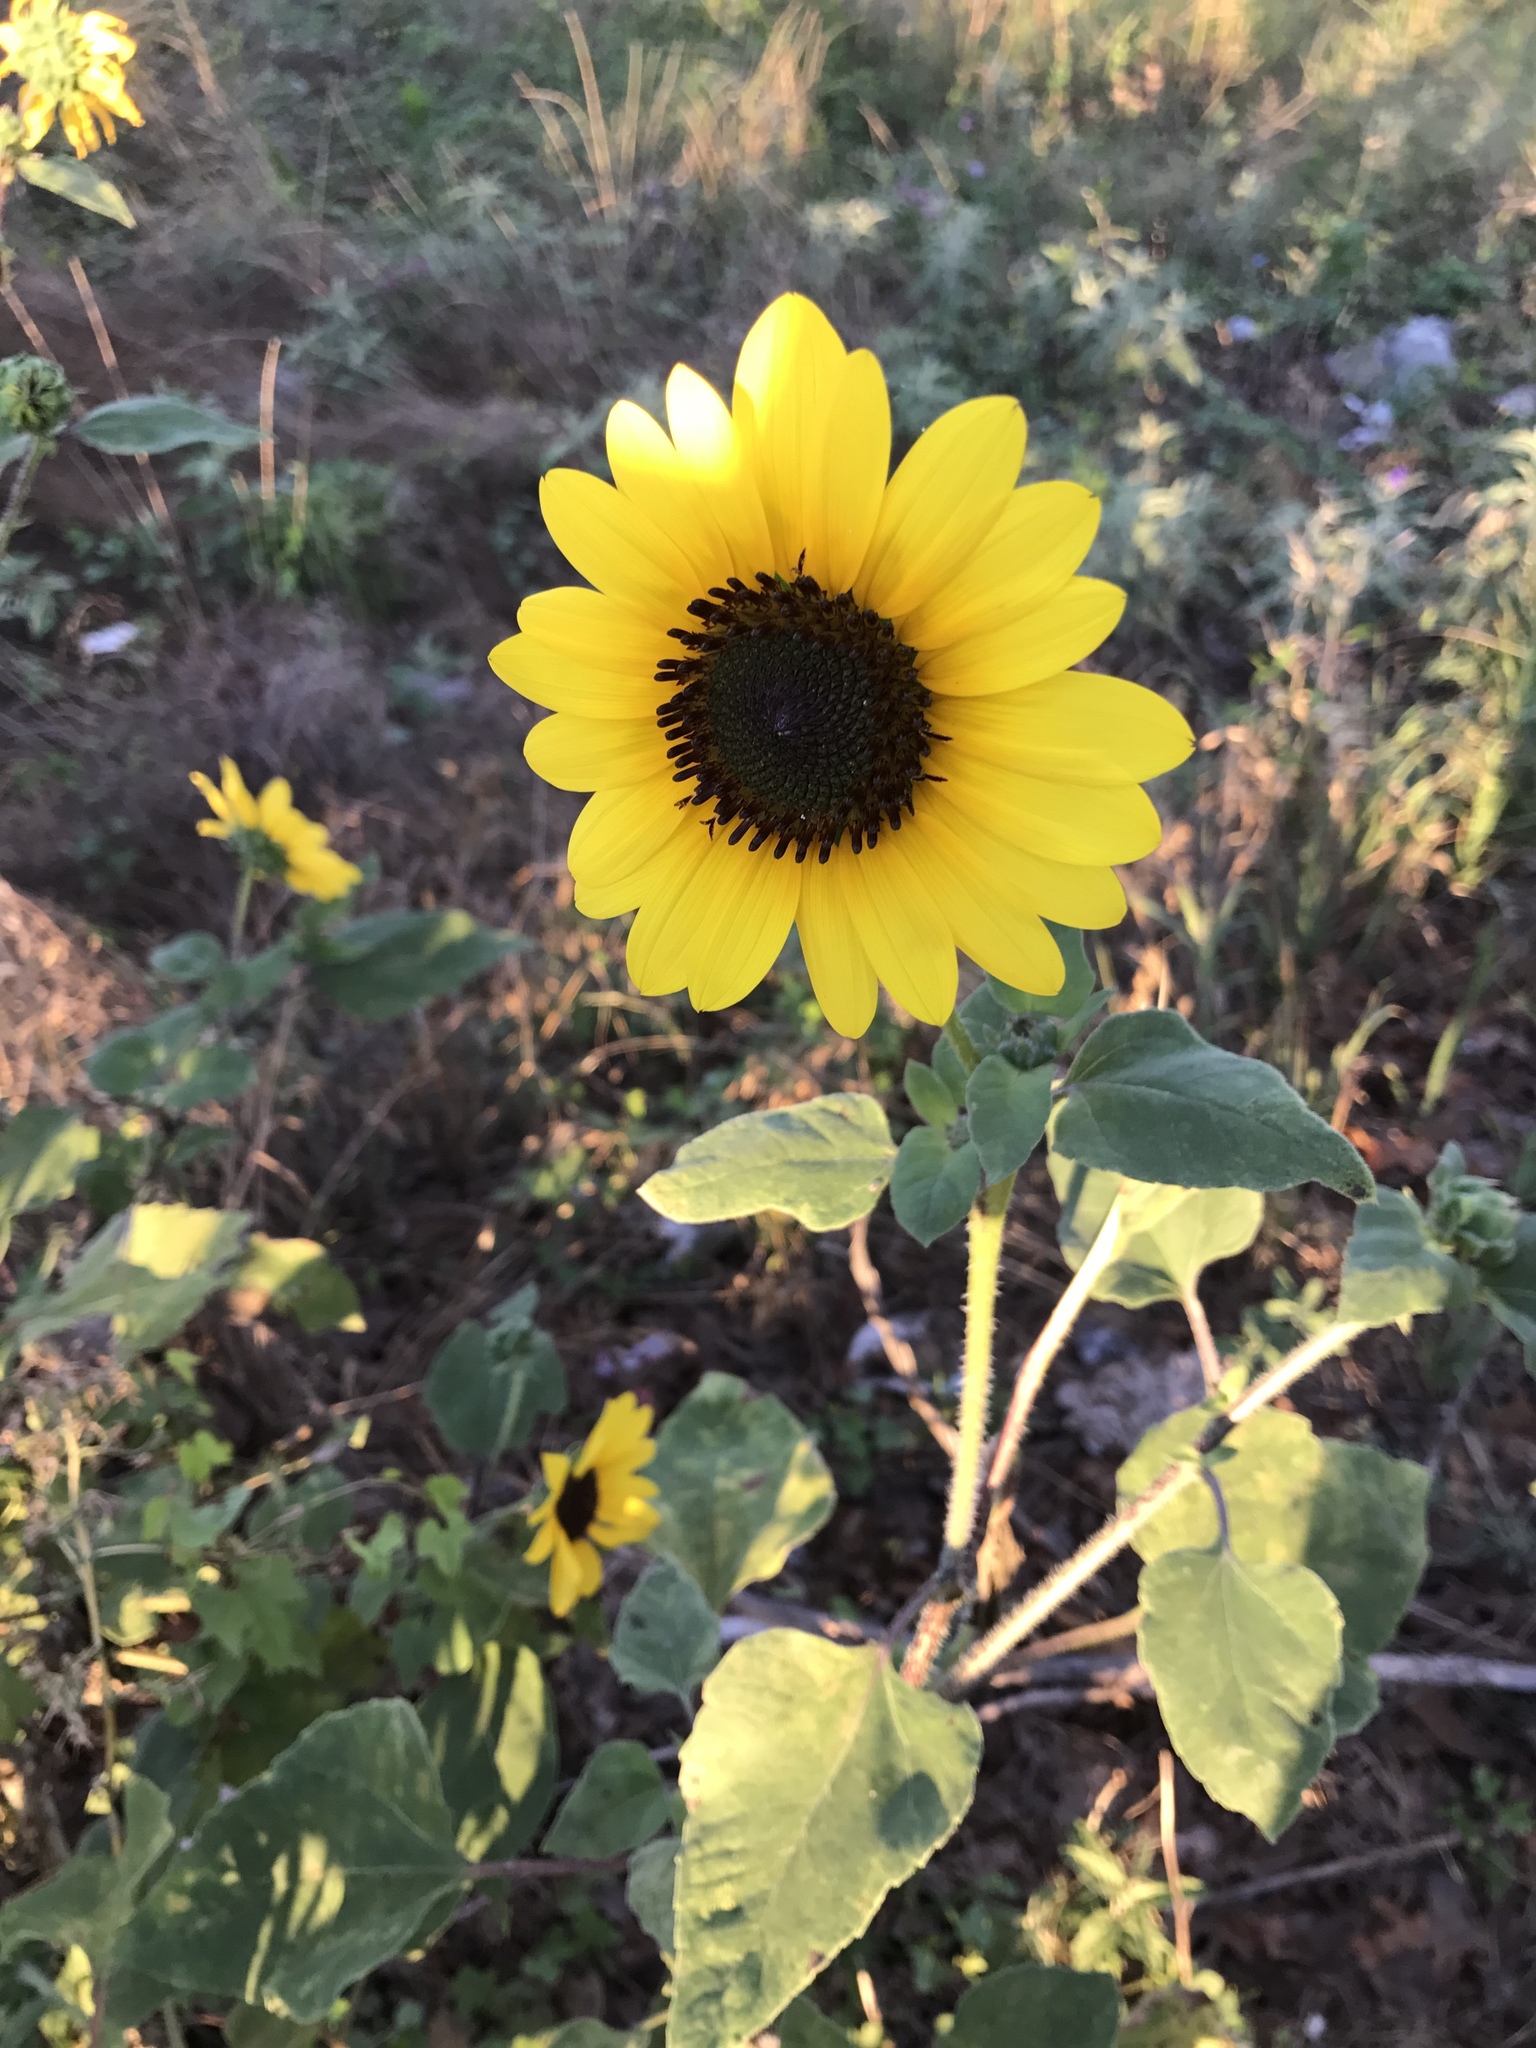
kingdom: Plantae
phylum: Tracheophyta
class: Magnoliopsida
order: Asterales
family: Asteraceae
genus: Helianthus
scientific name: Helianthus annuus
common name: Sunflower
